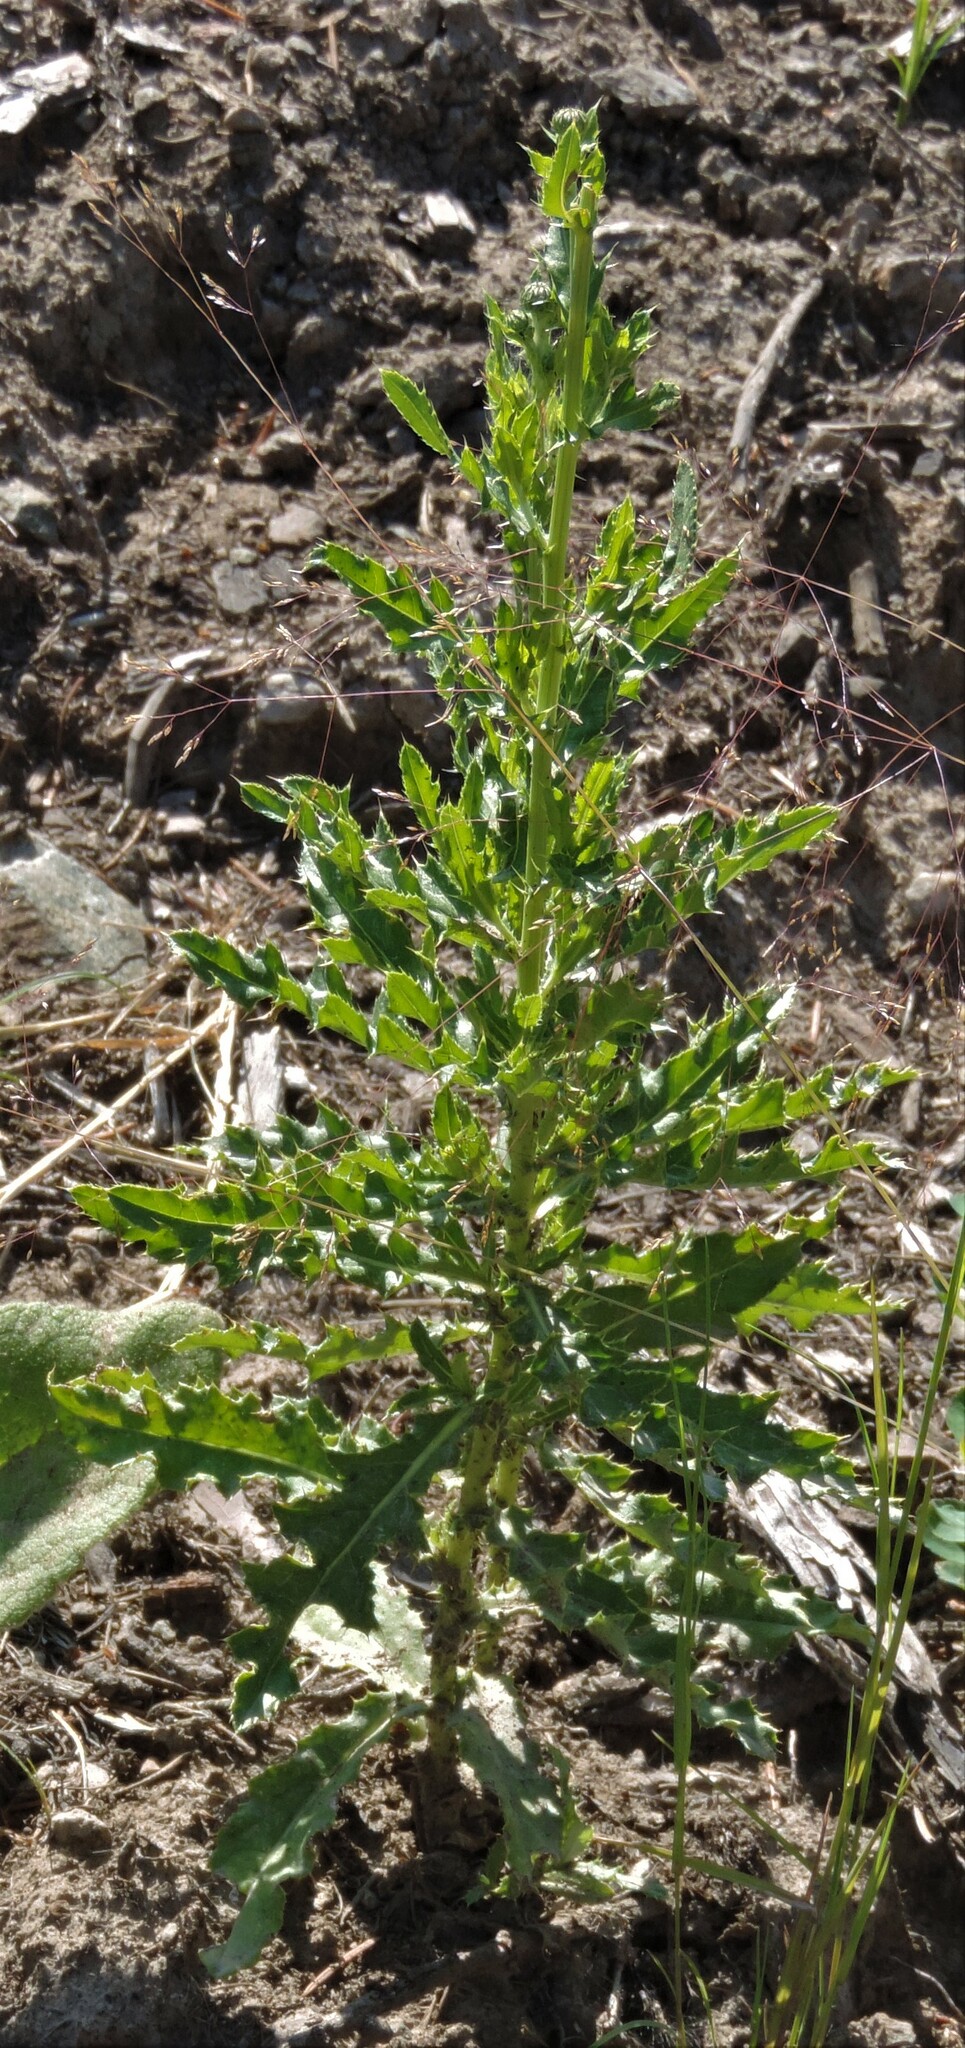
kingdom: Plantae
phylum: Tracheophyta
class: Magnoliopsida
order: Asterales
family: Asteraceae
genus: Cirsium
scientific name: Cirsium arvense
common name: Creeping thistle
